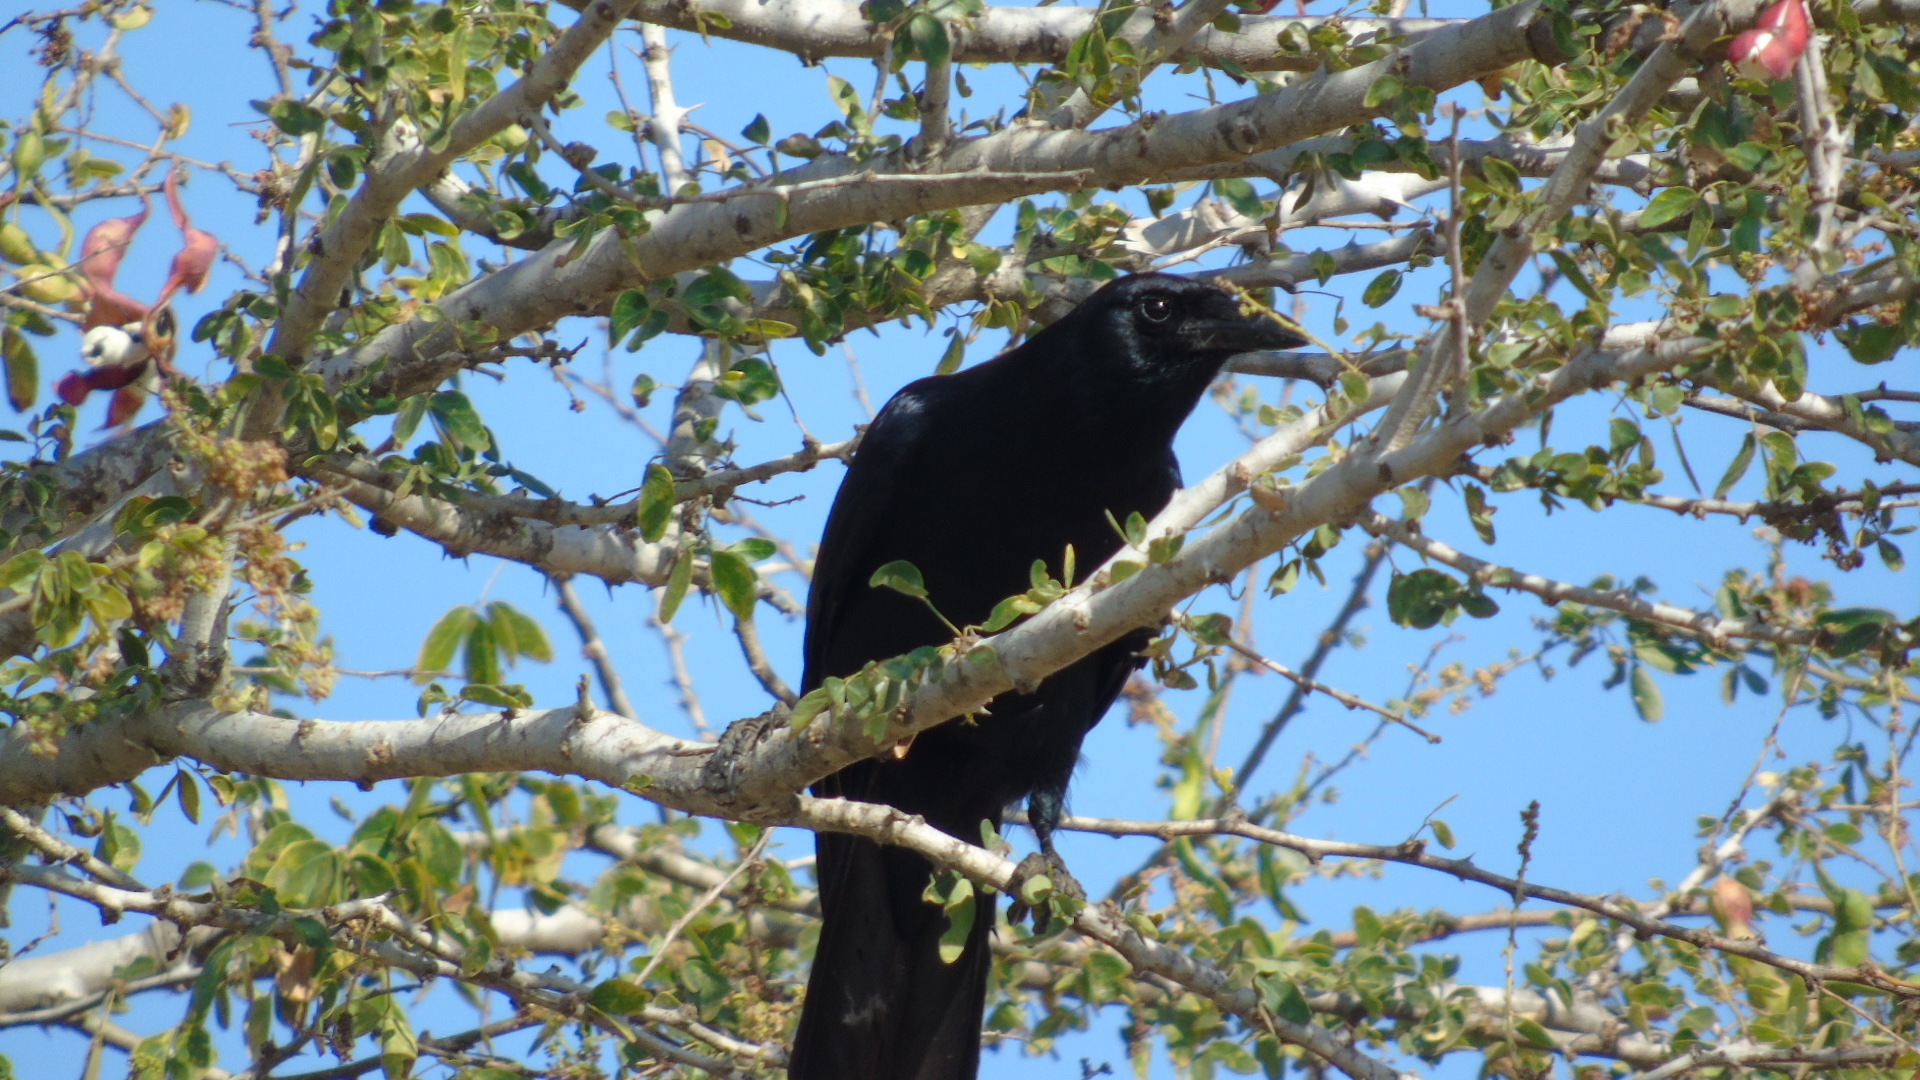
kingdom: Animalia
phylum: Chordata
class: Aves
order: Passeriformes
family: Corvidae
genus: Corvus
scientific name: Corvus sinaloae
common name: Sinaloa crow
